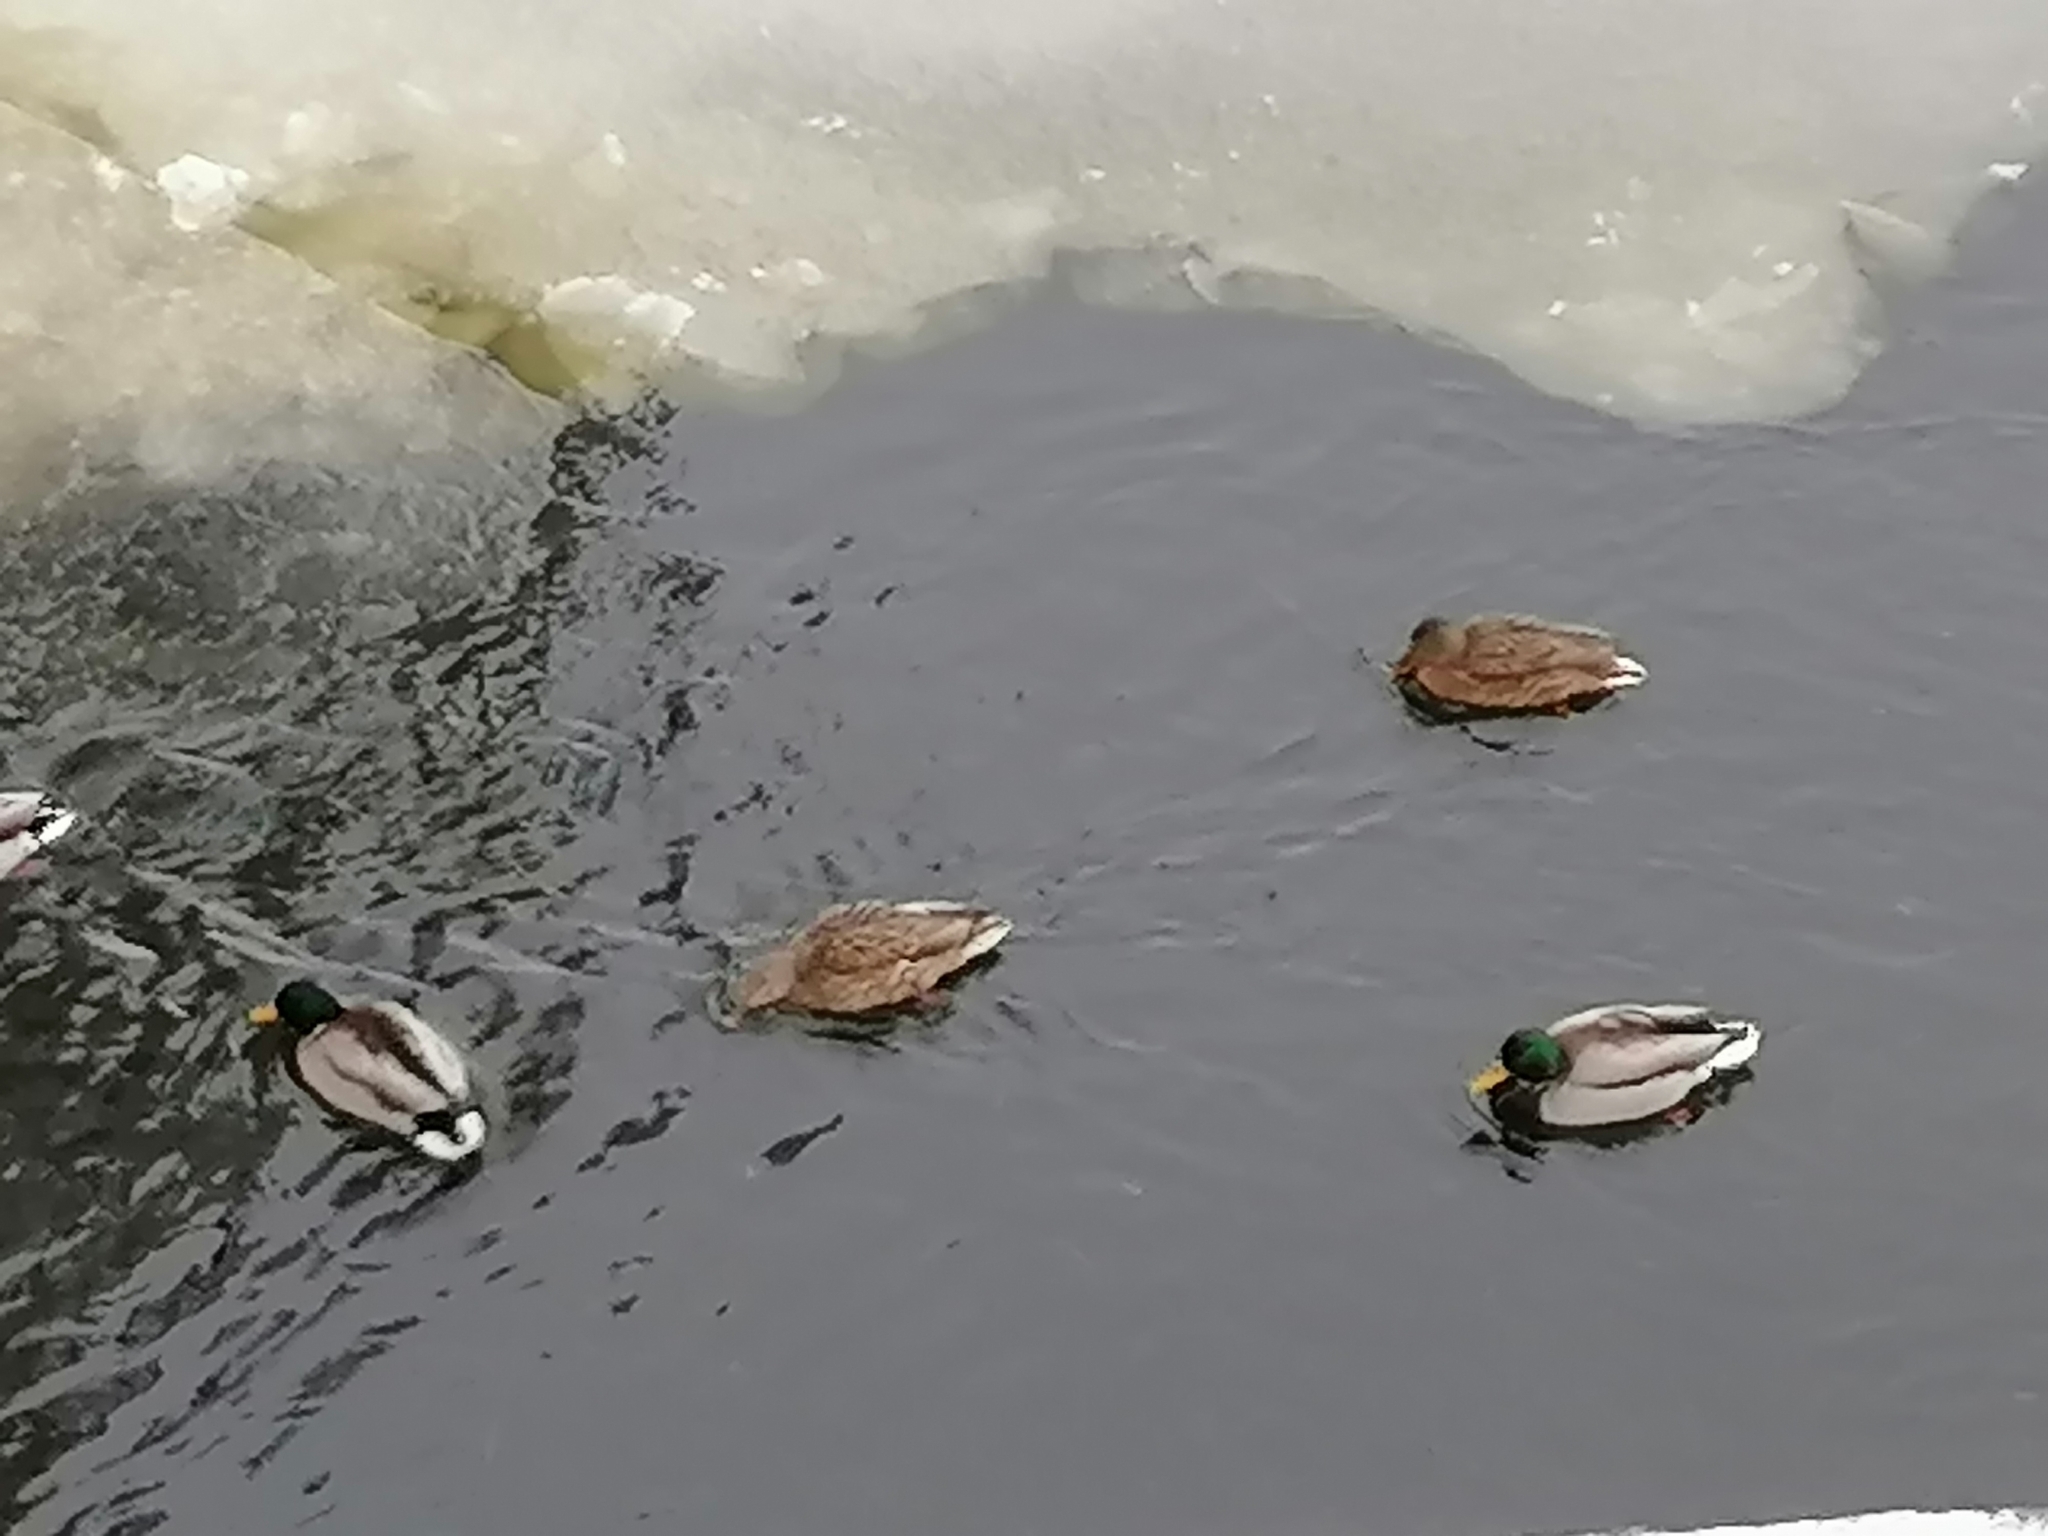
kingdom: Animalia
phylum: Chordata
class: Aves
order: Anseriformes
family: Anatidae
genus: Anas
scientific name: Anas platyrhynchos
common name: Mallard
